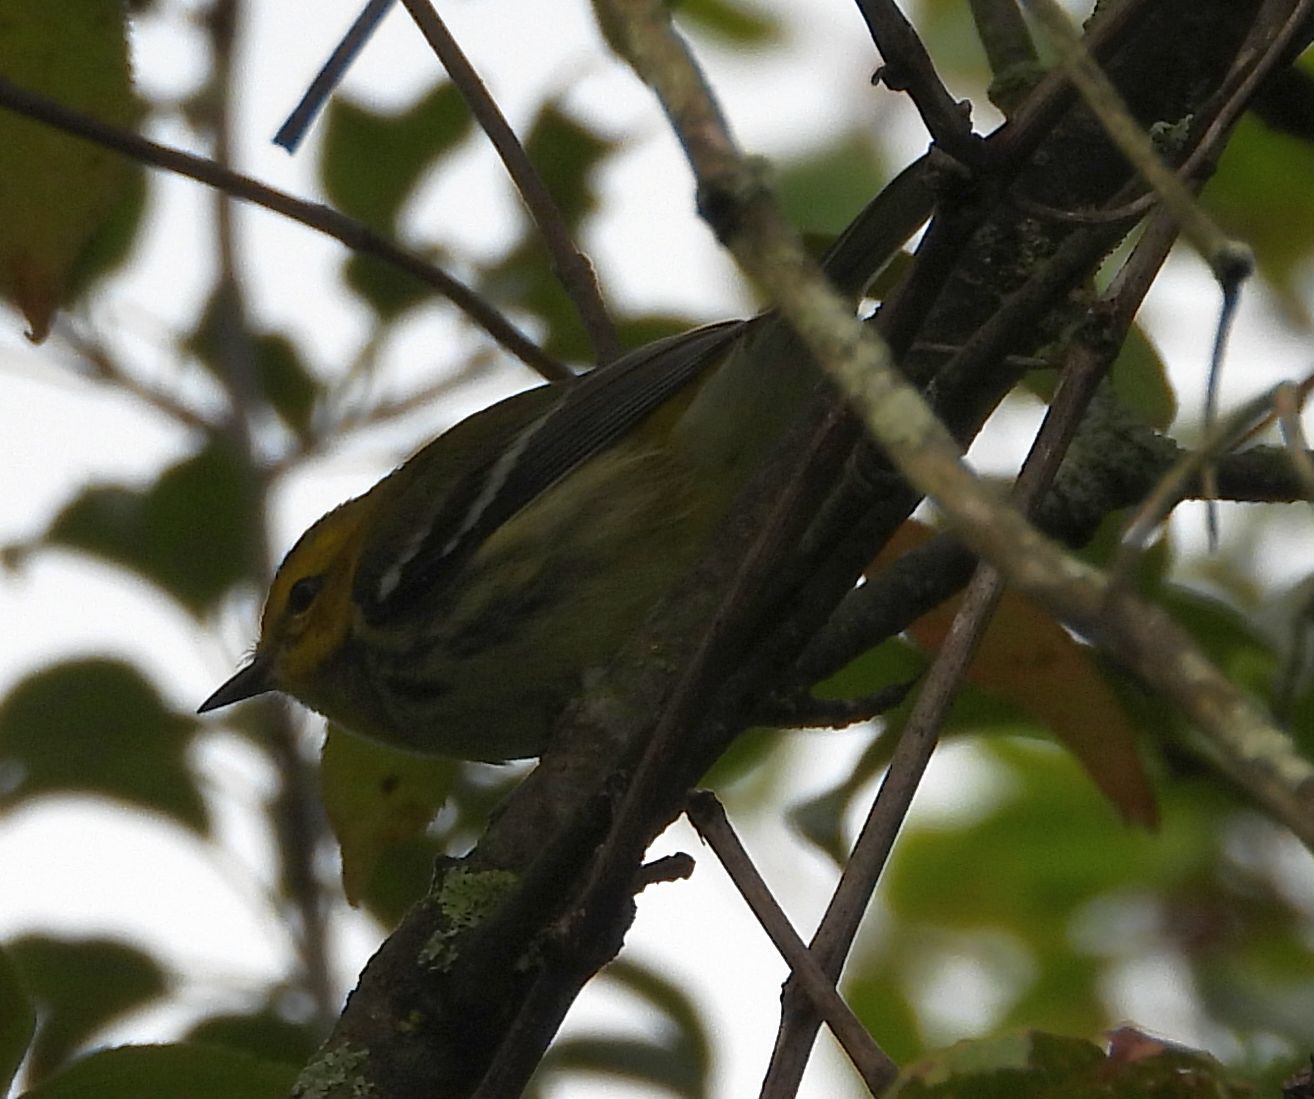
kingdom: Animalia
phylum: Chordata
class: Aves
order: Passeriformes
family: Parulidae
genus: Setophaga
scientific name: Setophaga virens
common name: Black-throated green warbler
